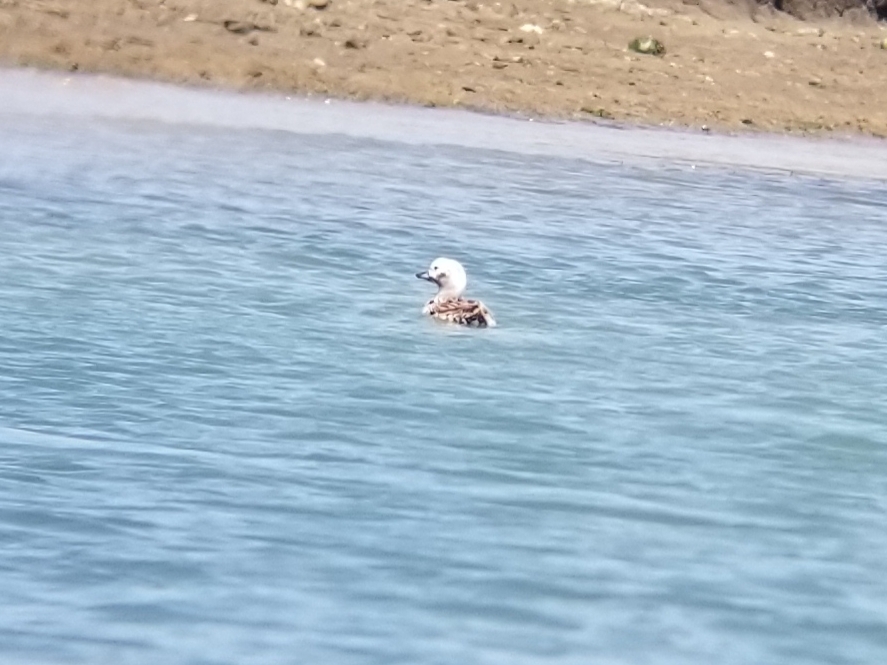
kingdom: Animalia
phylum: Chordata
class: Aves
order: Anseriformes
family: Anatidae
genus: Clangula
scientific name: Clangula hyemalis
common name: Long-tailed duck
